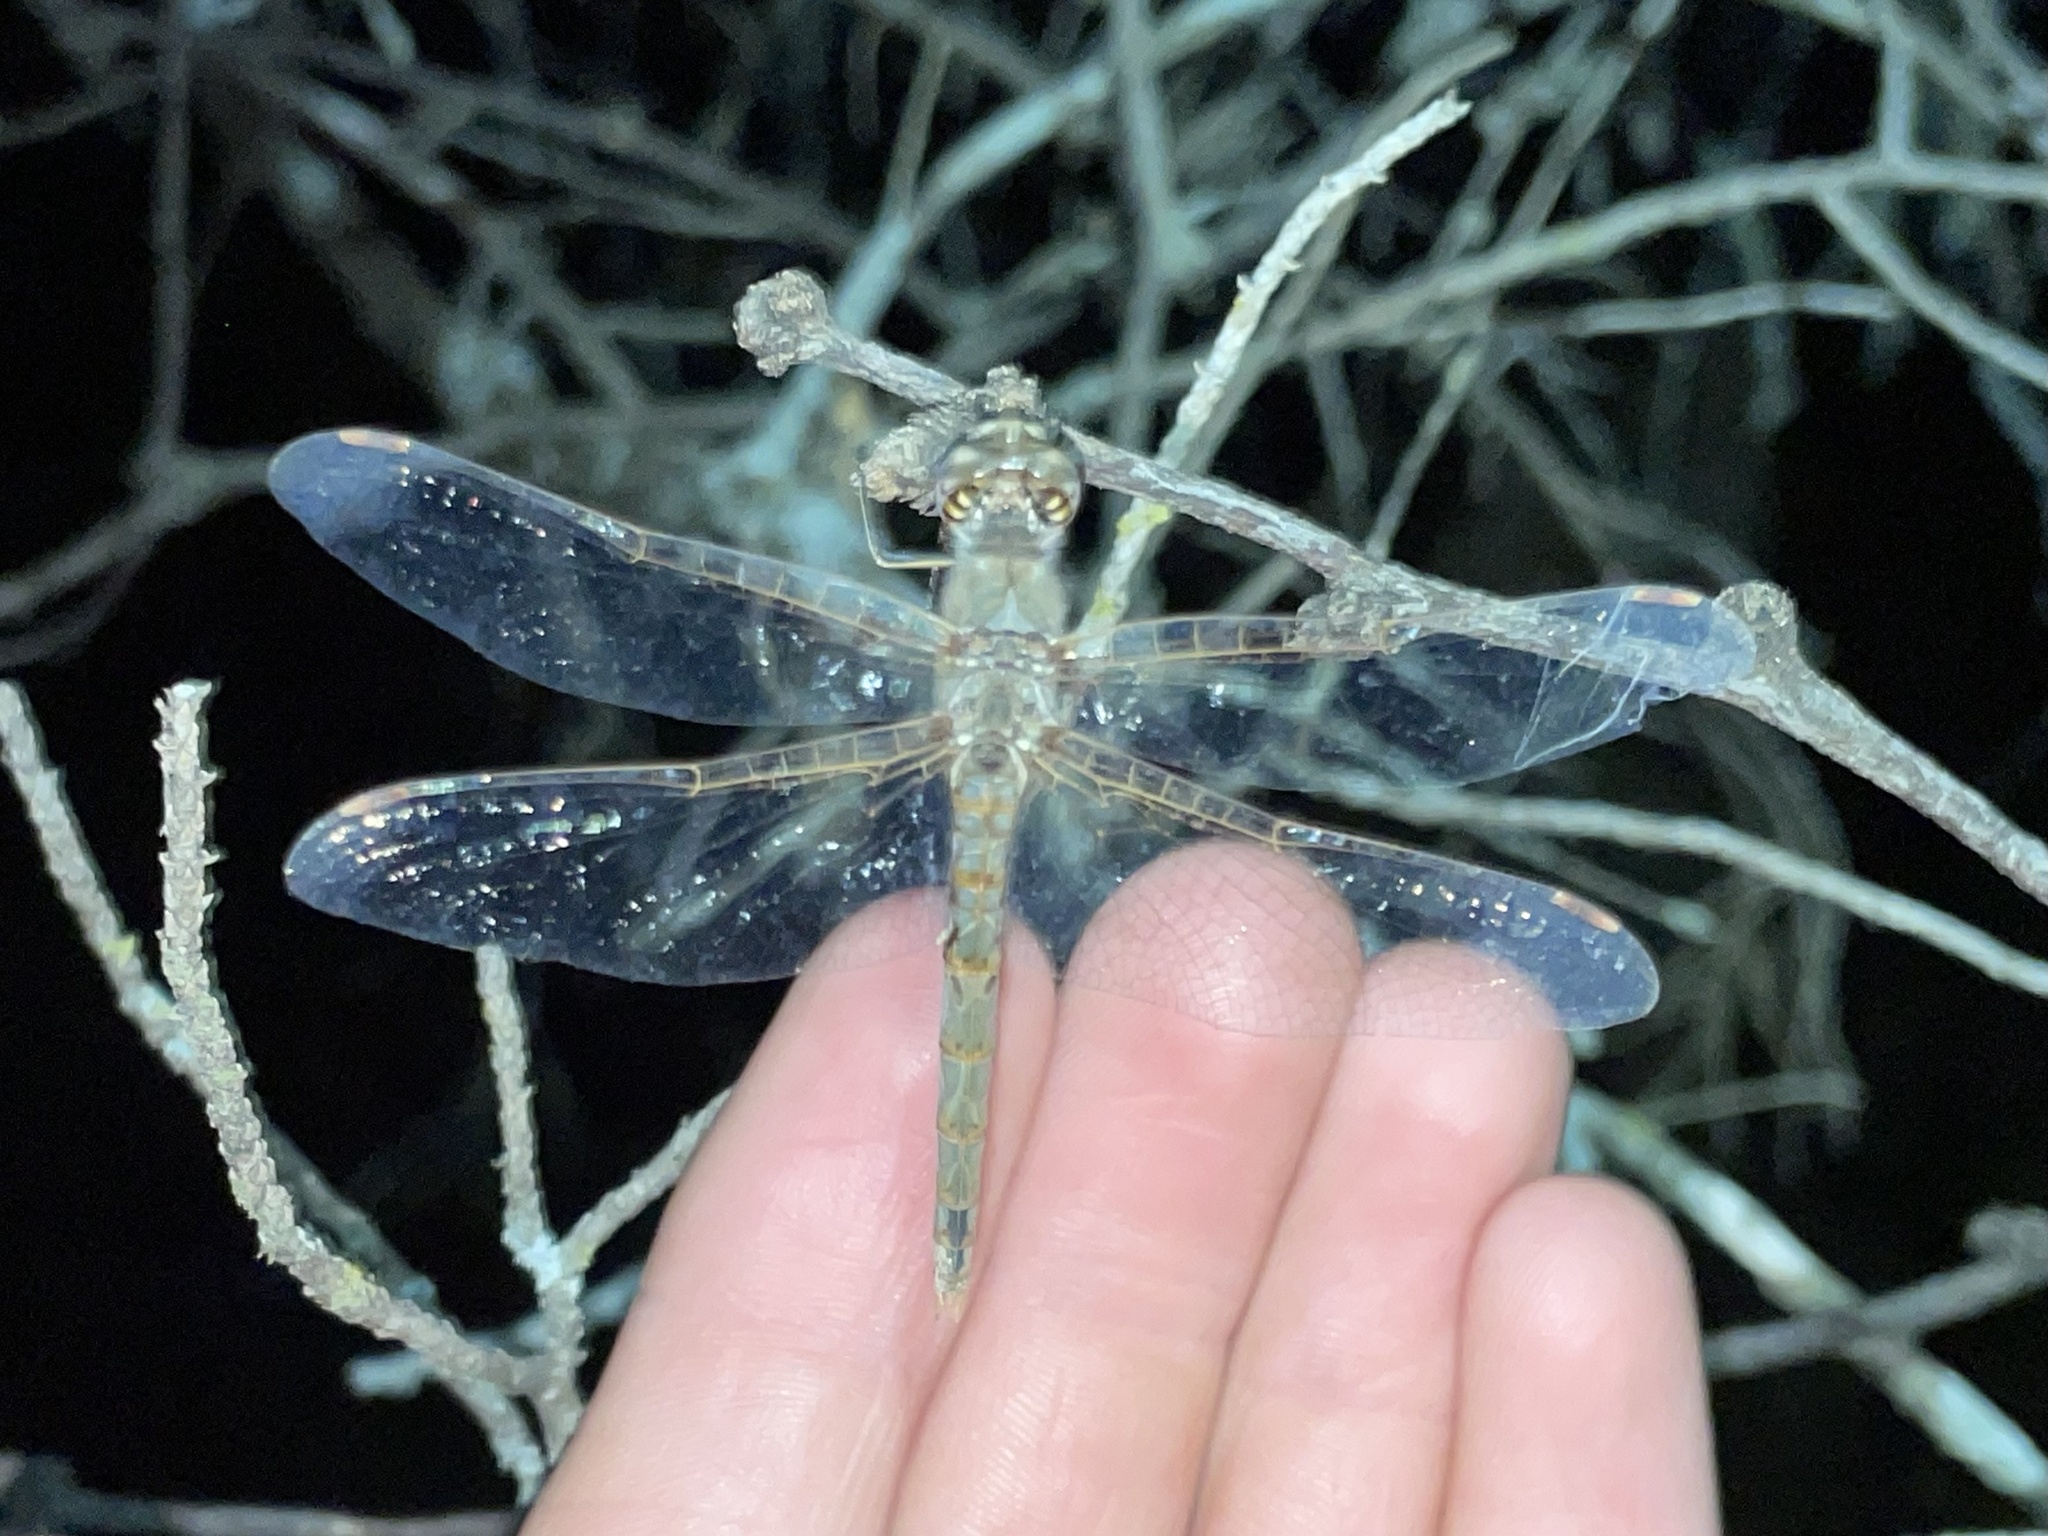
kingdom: Animalia
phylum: Arthropoda
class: Insecta
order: Odonata
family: Libellulidae
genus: Sympetrum
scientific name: Sympetrum corruptum
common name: Variegated meadowhawk
